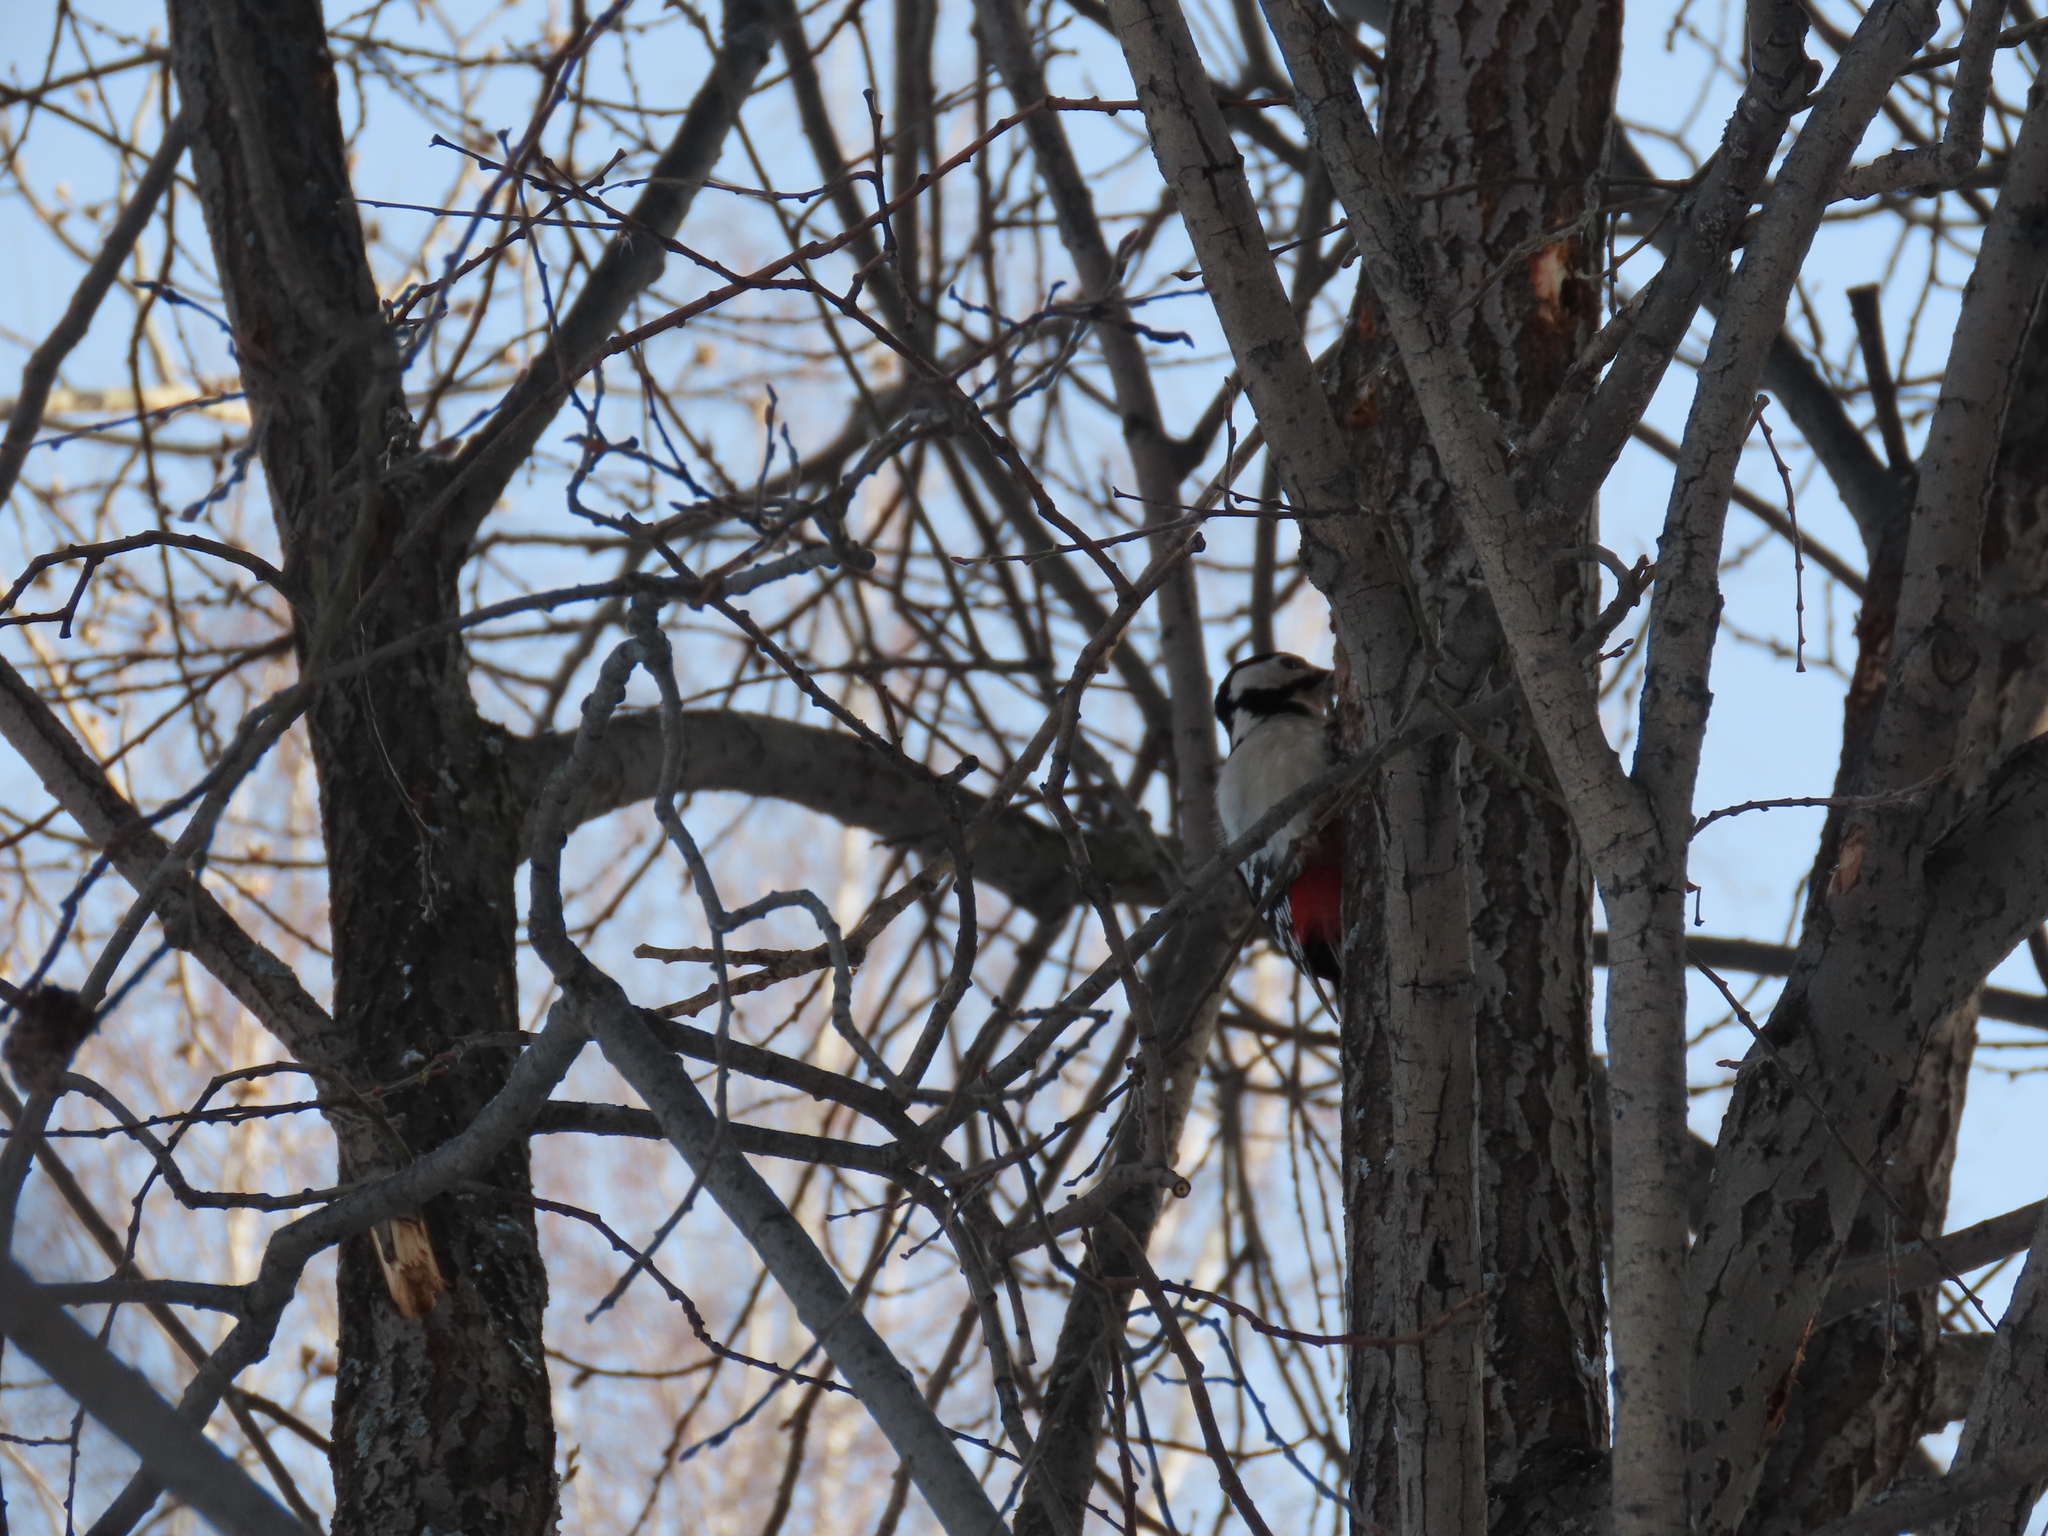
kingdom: Animalia
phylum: Chordata
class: Aves
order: Piciformes
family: Picidae
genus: Dendrocopos
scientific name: Dendrocopos major
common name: Great spotted woodpecker
